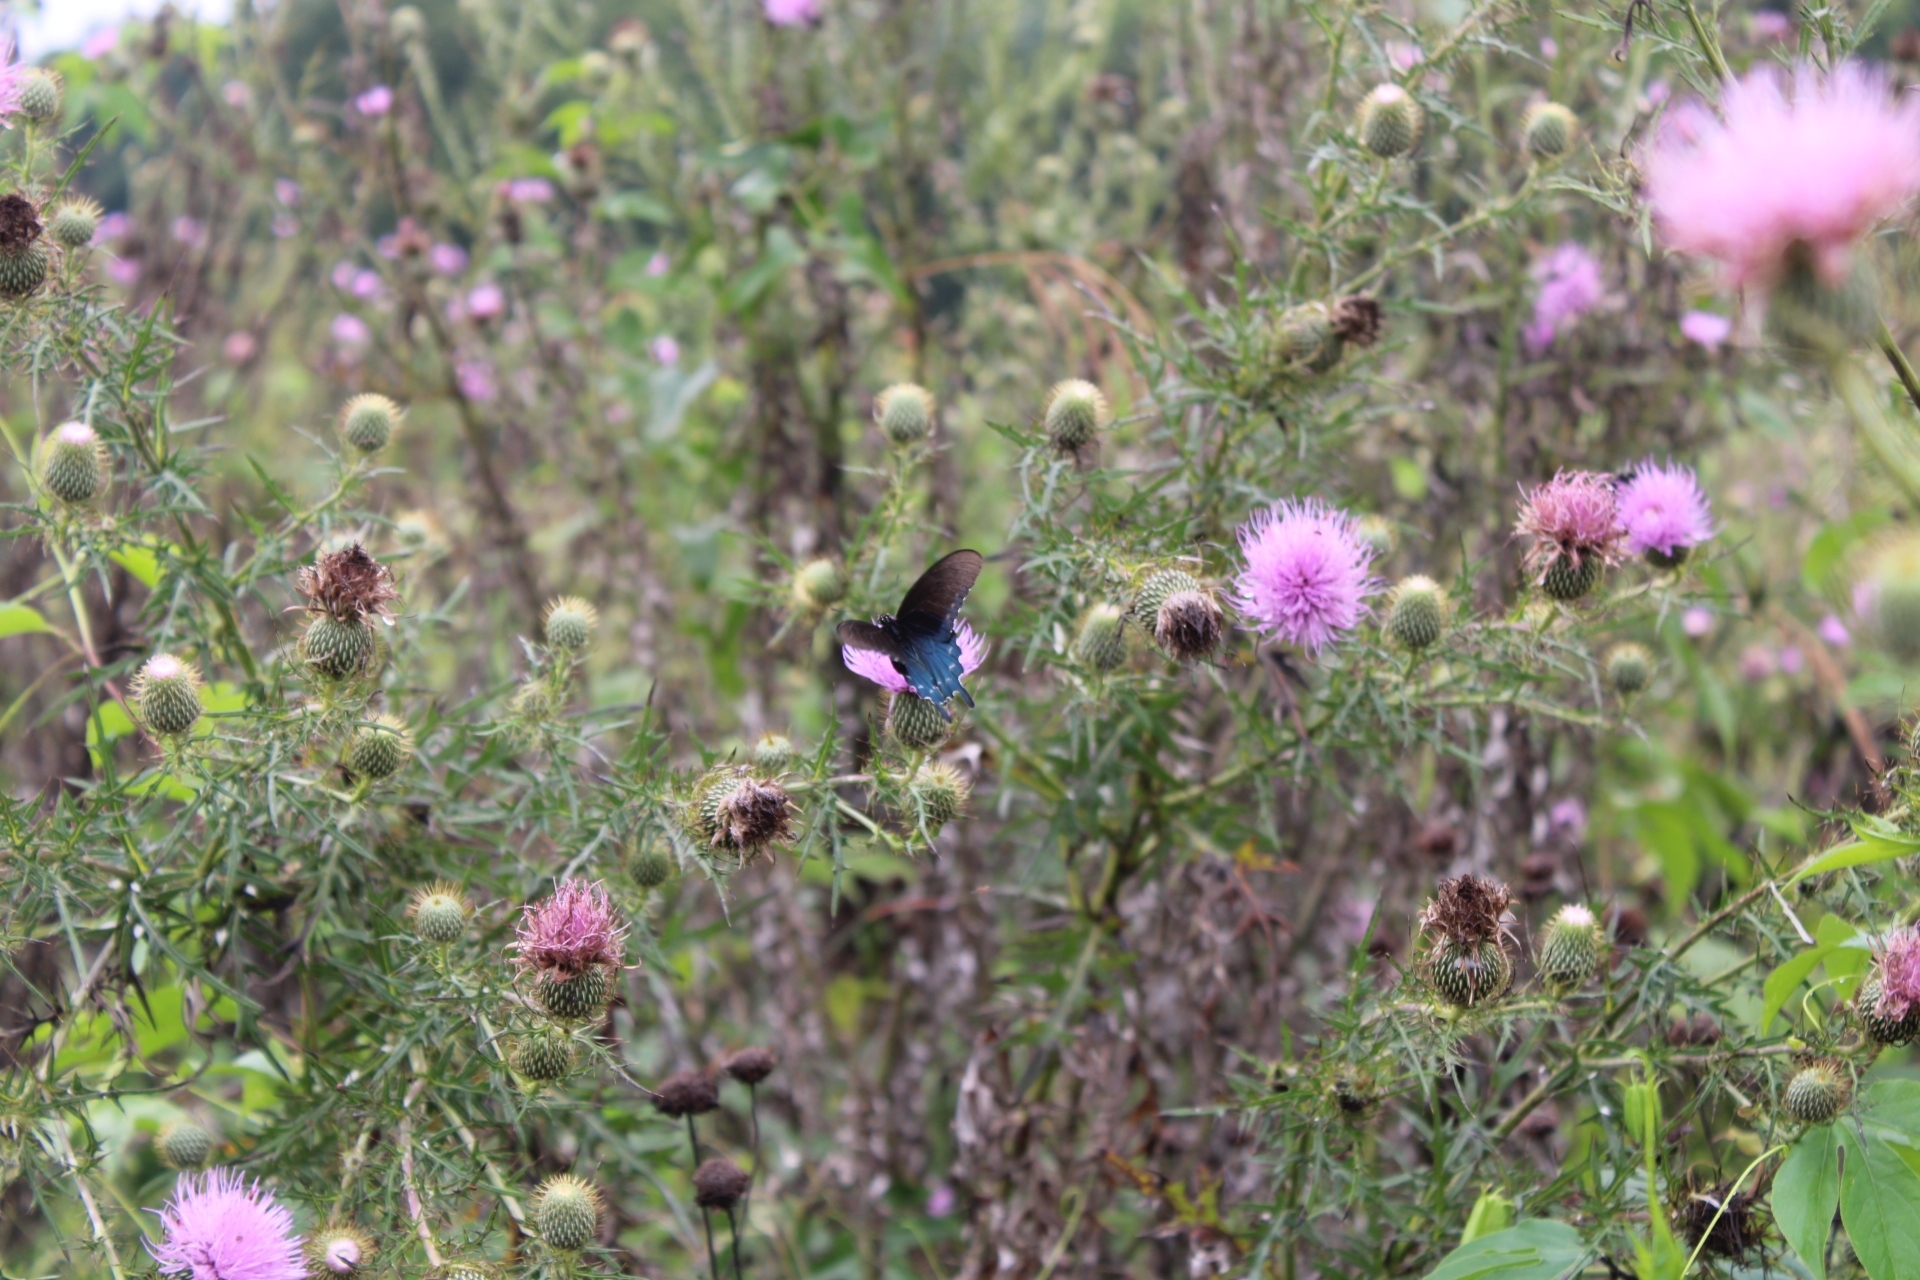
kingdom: Animalia
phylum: Arthropoda
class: Insecta
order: Lepidoptera
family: Papilionidae
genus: Battus
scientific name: Battus philenor
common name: Pipevine swallowtail
